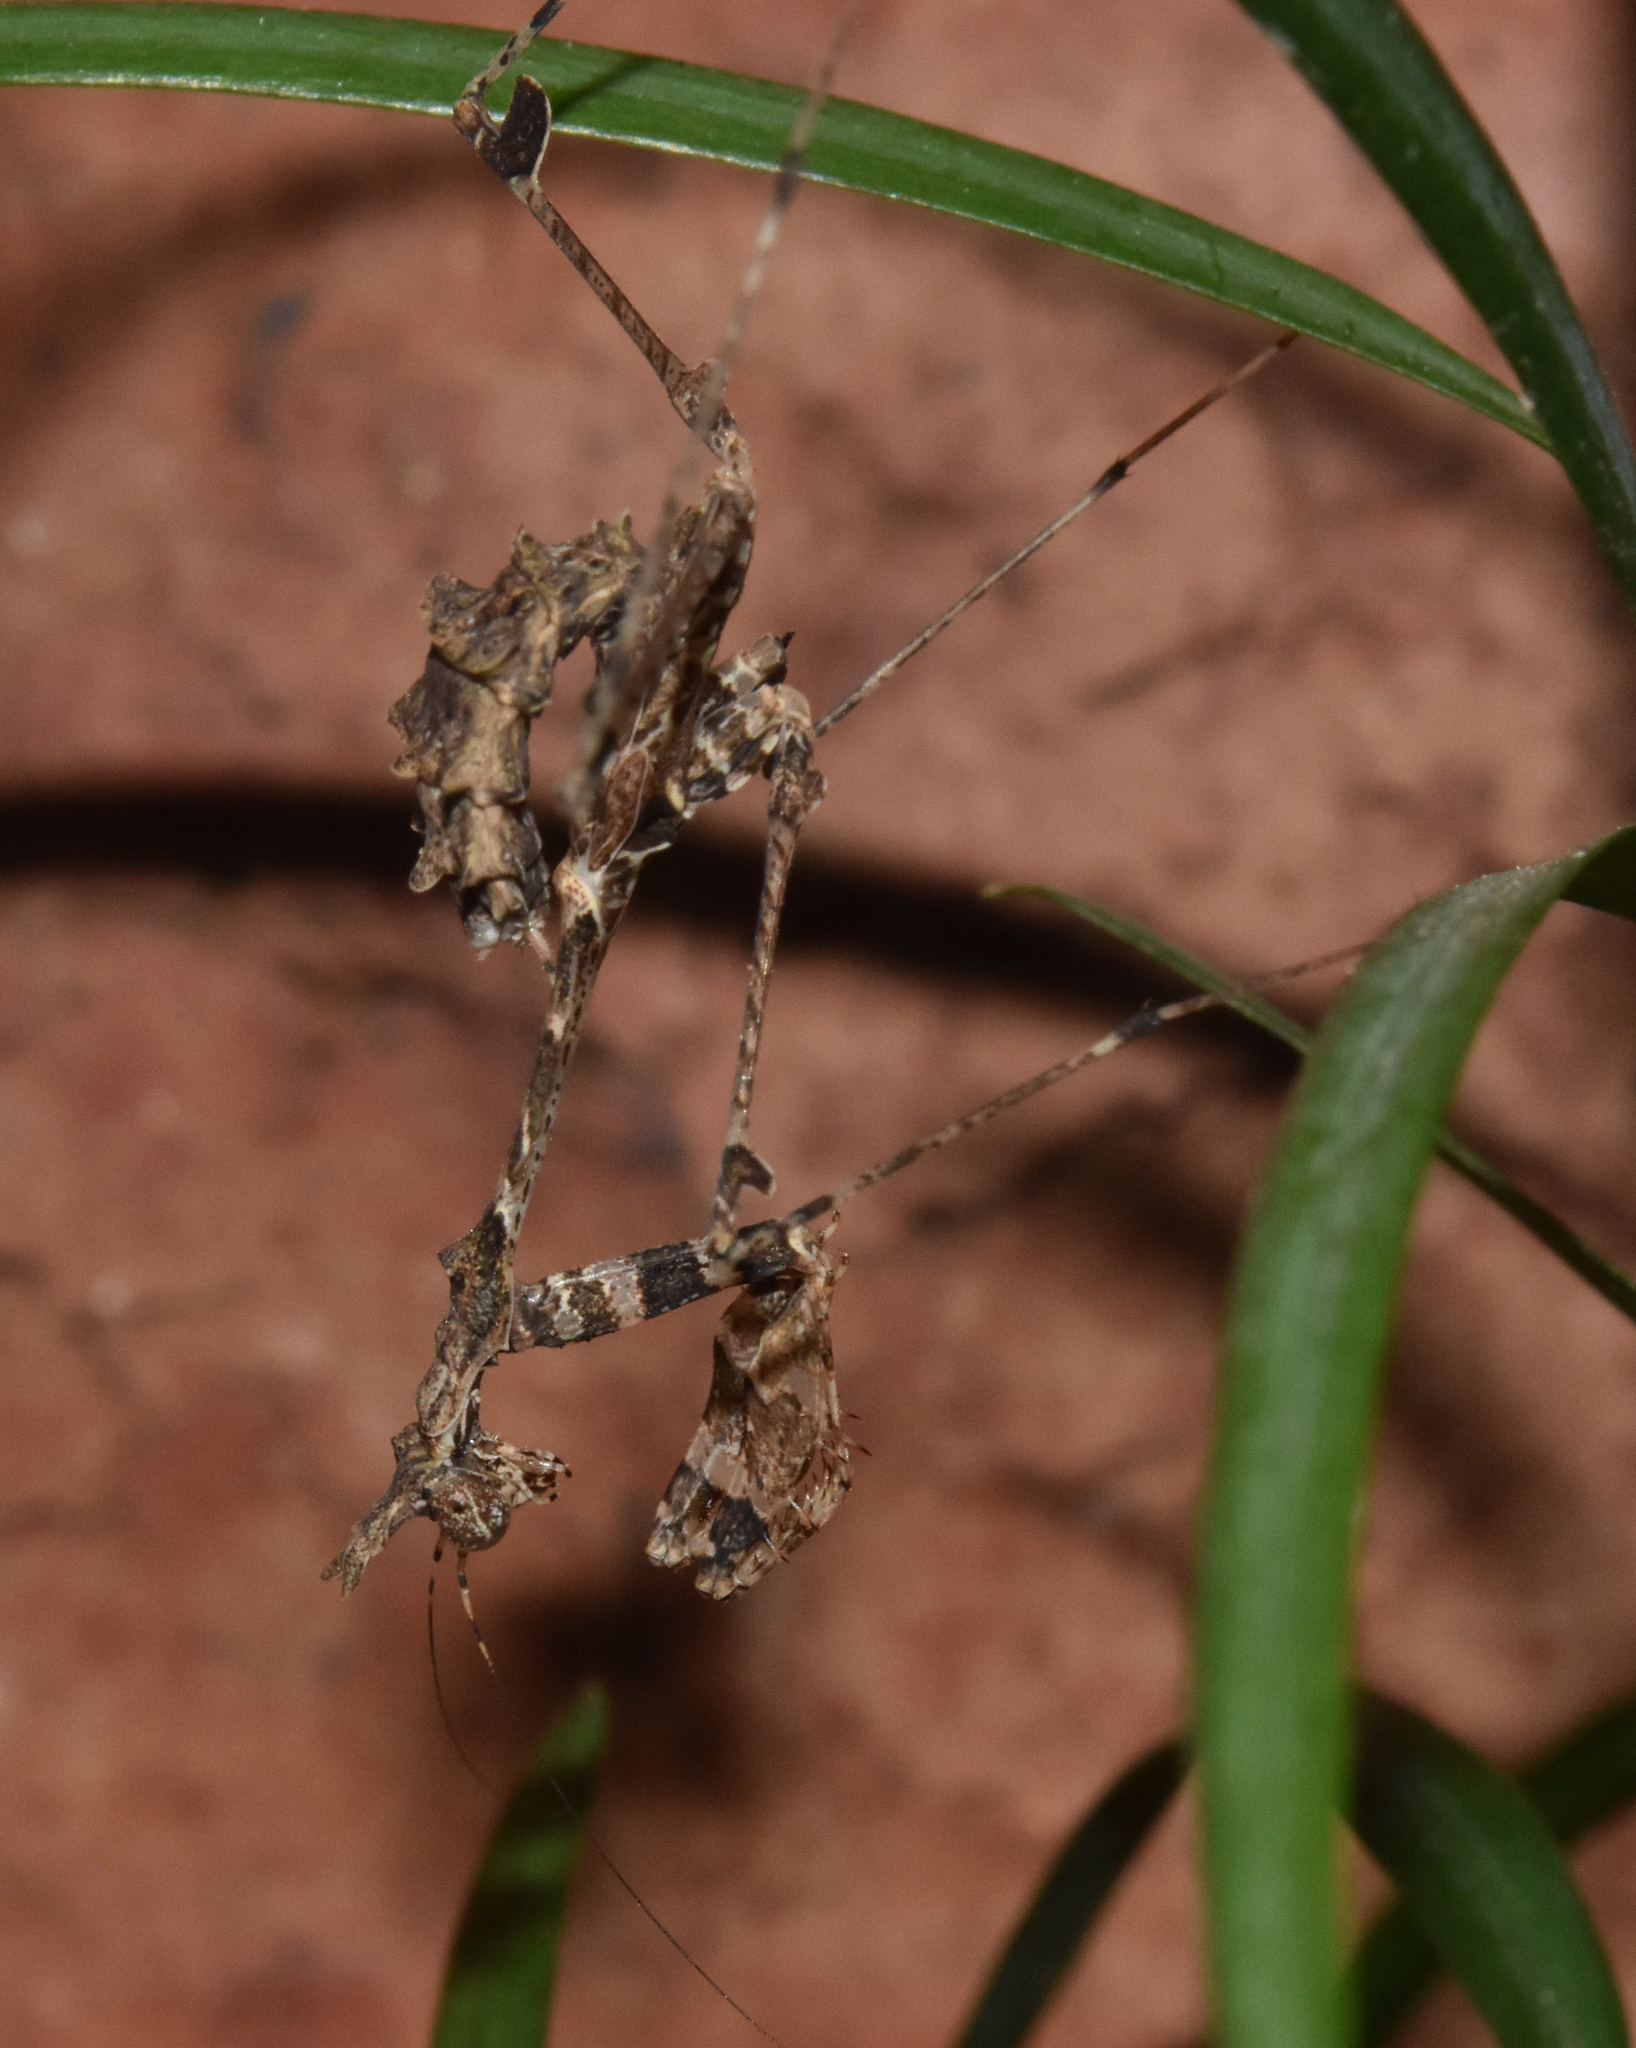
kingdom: Animalia
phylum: Arthropoda
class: Insecta
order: Mantodea
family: Hymenopodidae
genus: Sibylla
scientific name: Sibylla pretiosa
